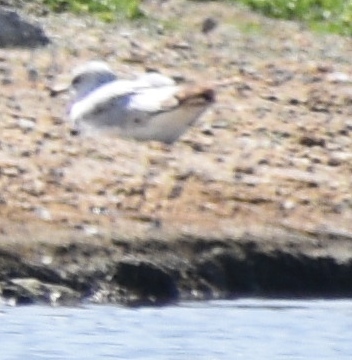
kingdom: Animalia
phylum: Chordata
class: Aves
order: Charadriiformes
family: Laridae
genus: Larus
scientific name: Larus delawarensis
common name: Ring-billed gull
